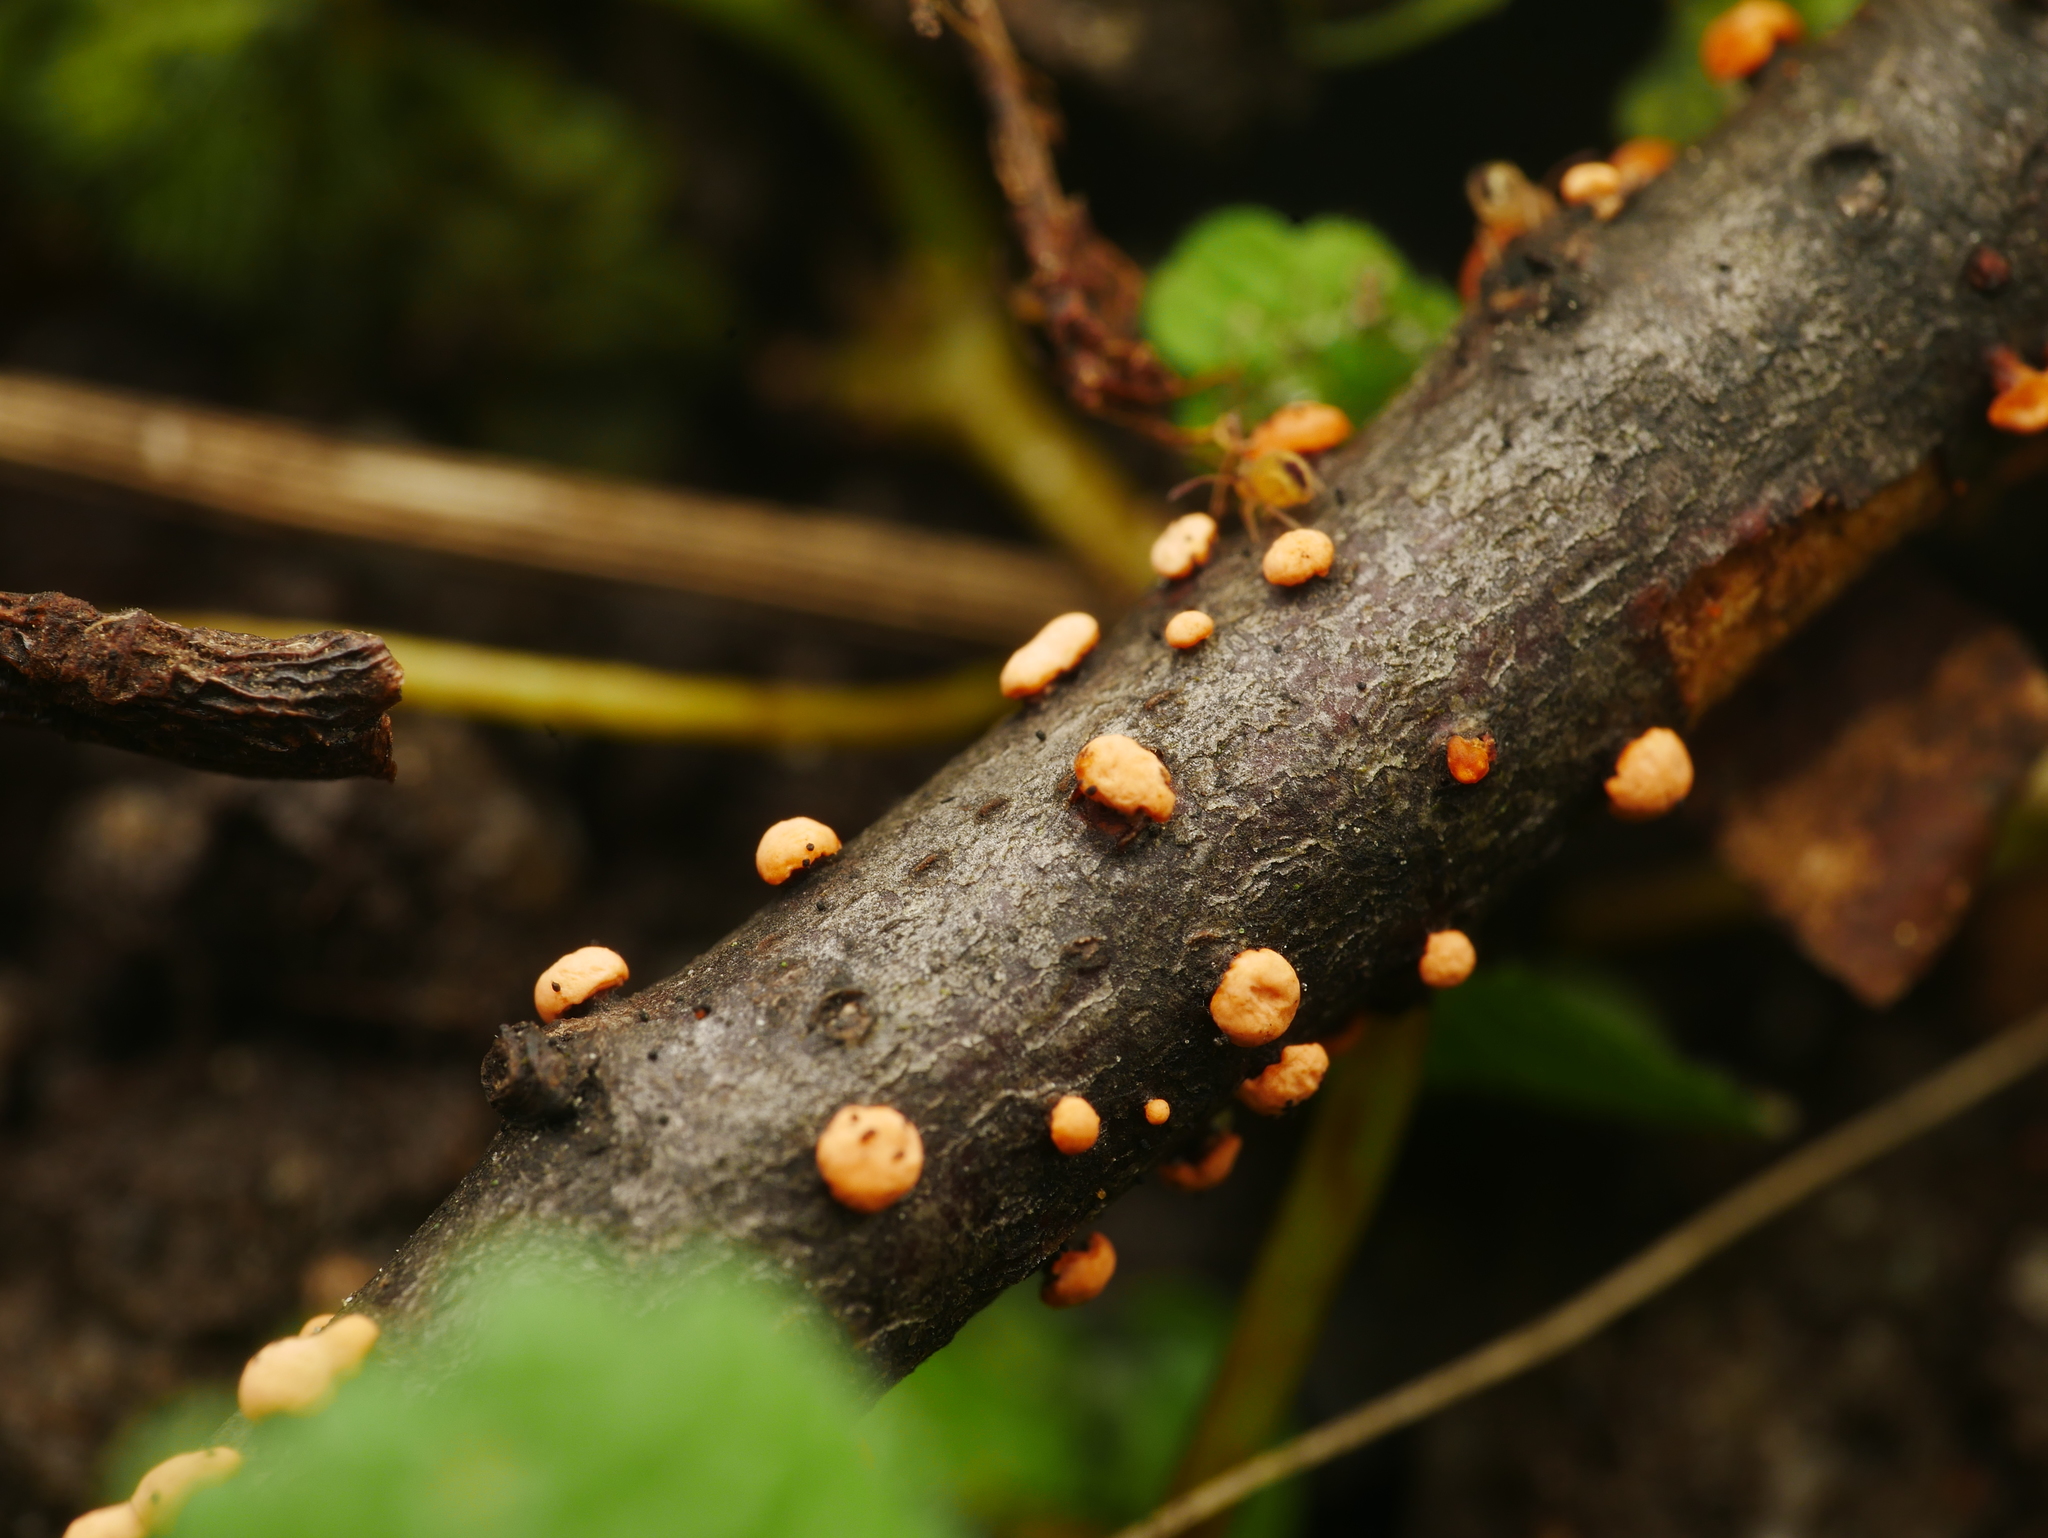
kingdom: Fungi
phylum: Ascomycota
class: Sordariomycetes
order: Hypocreales
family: Nectriaceae
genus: Nectria
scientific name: Nectria cinnabarina
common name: Coral spot
